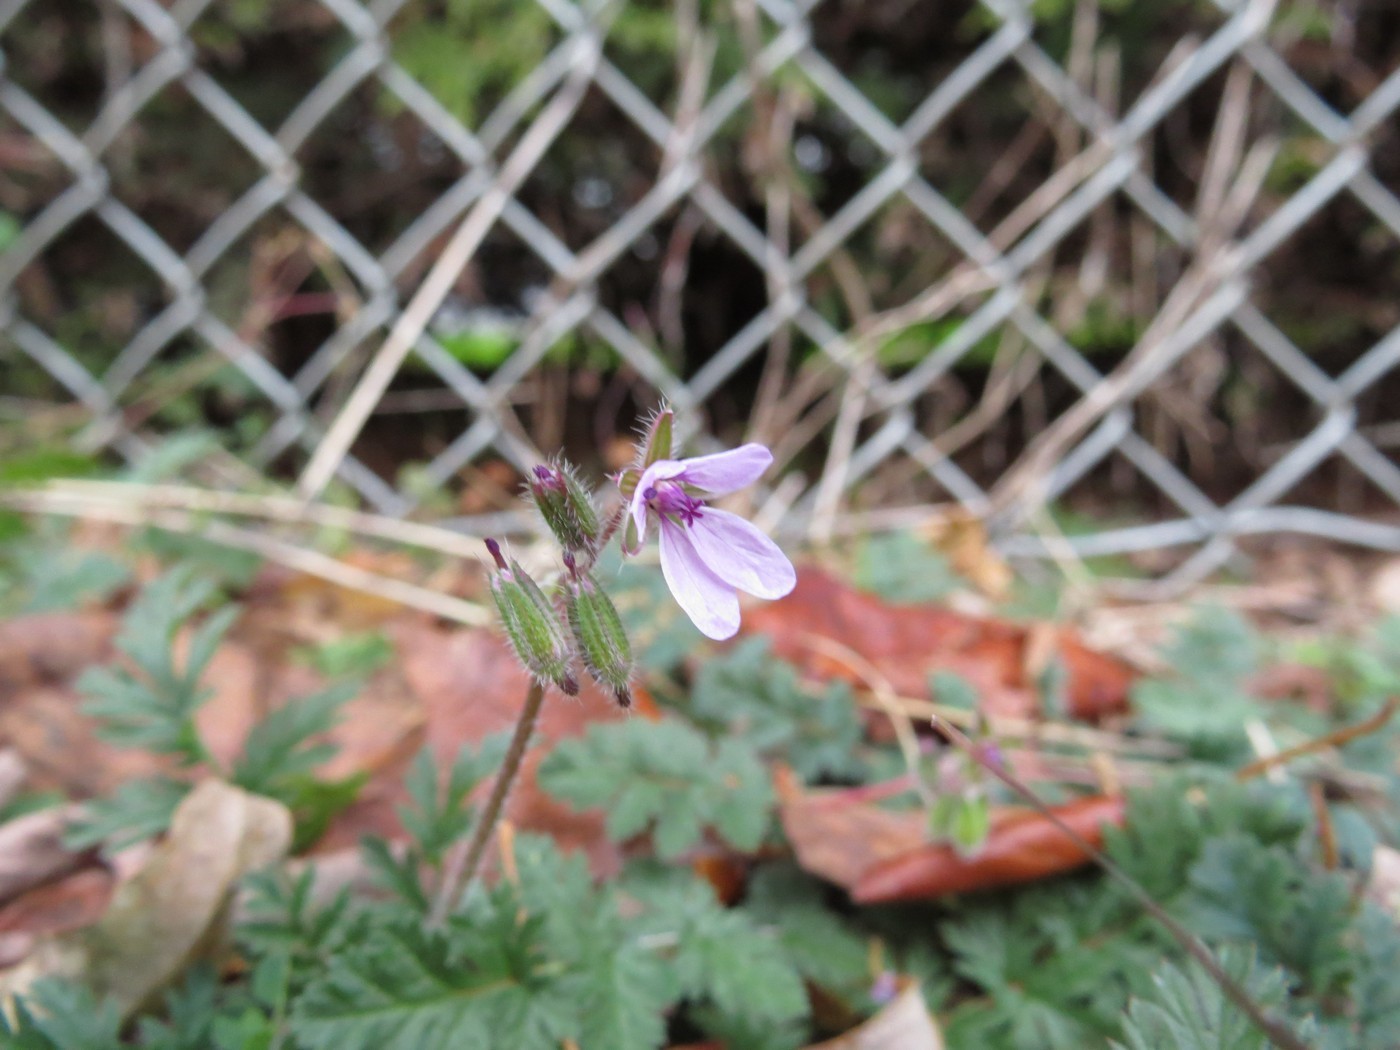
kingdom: Plantae
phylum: Tracheophyta
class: Magnoliopsida
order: Geraniales
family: Geraniaceae
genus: Erodium
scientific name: Erodium cicutarium
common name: Common stork's-bill
